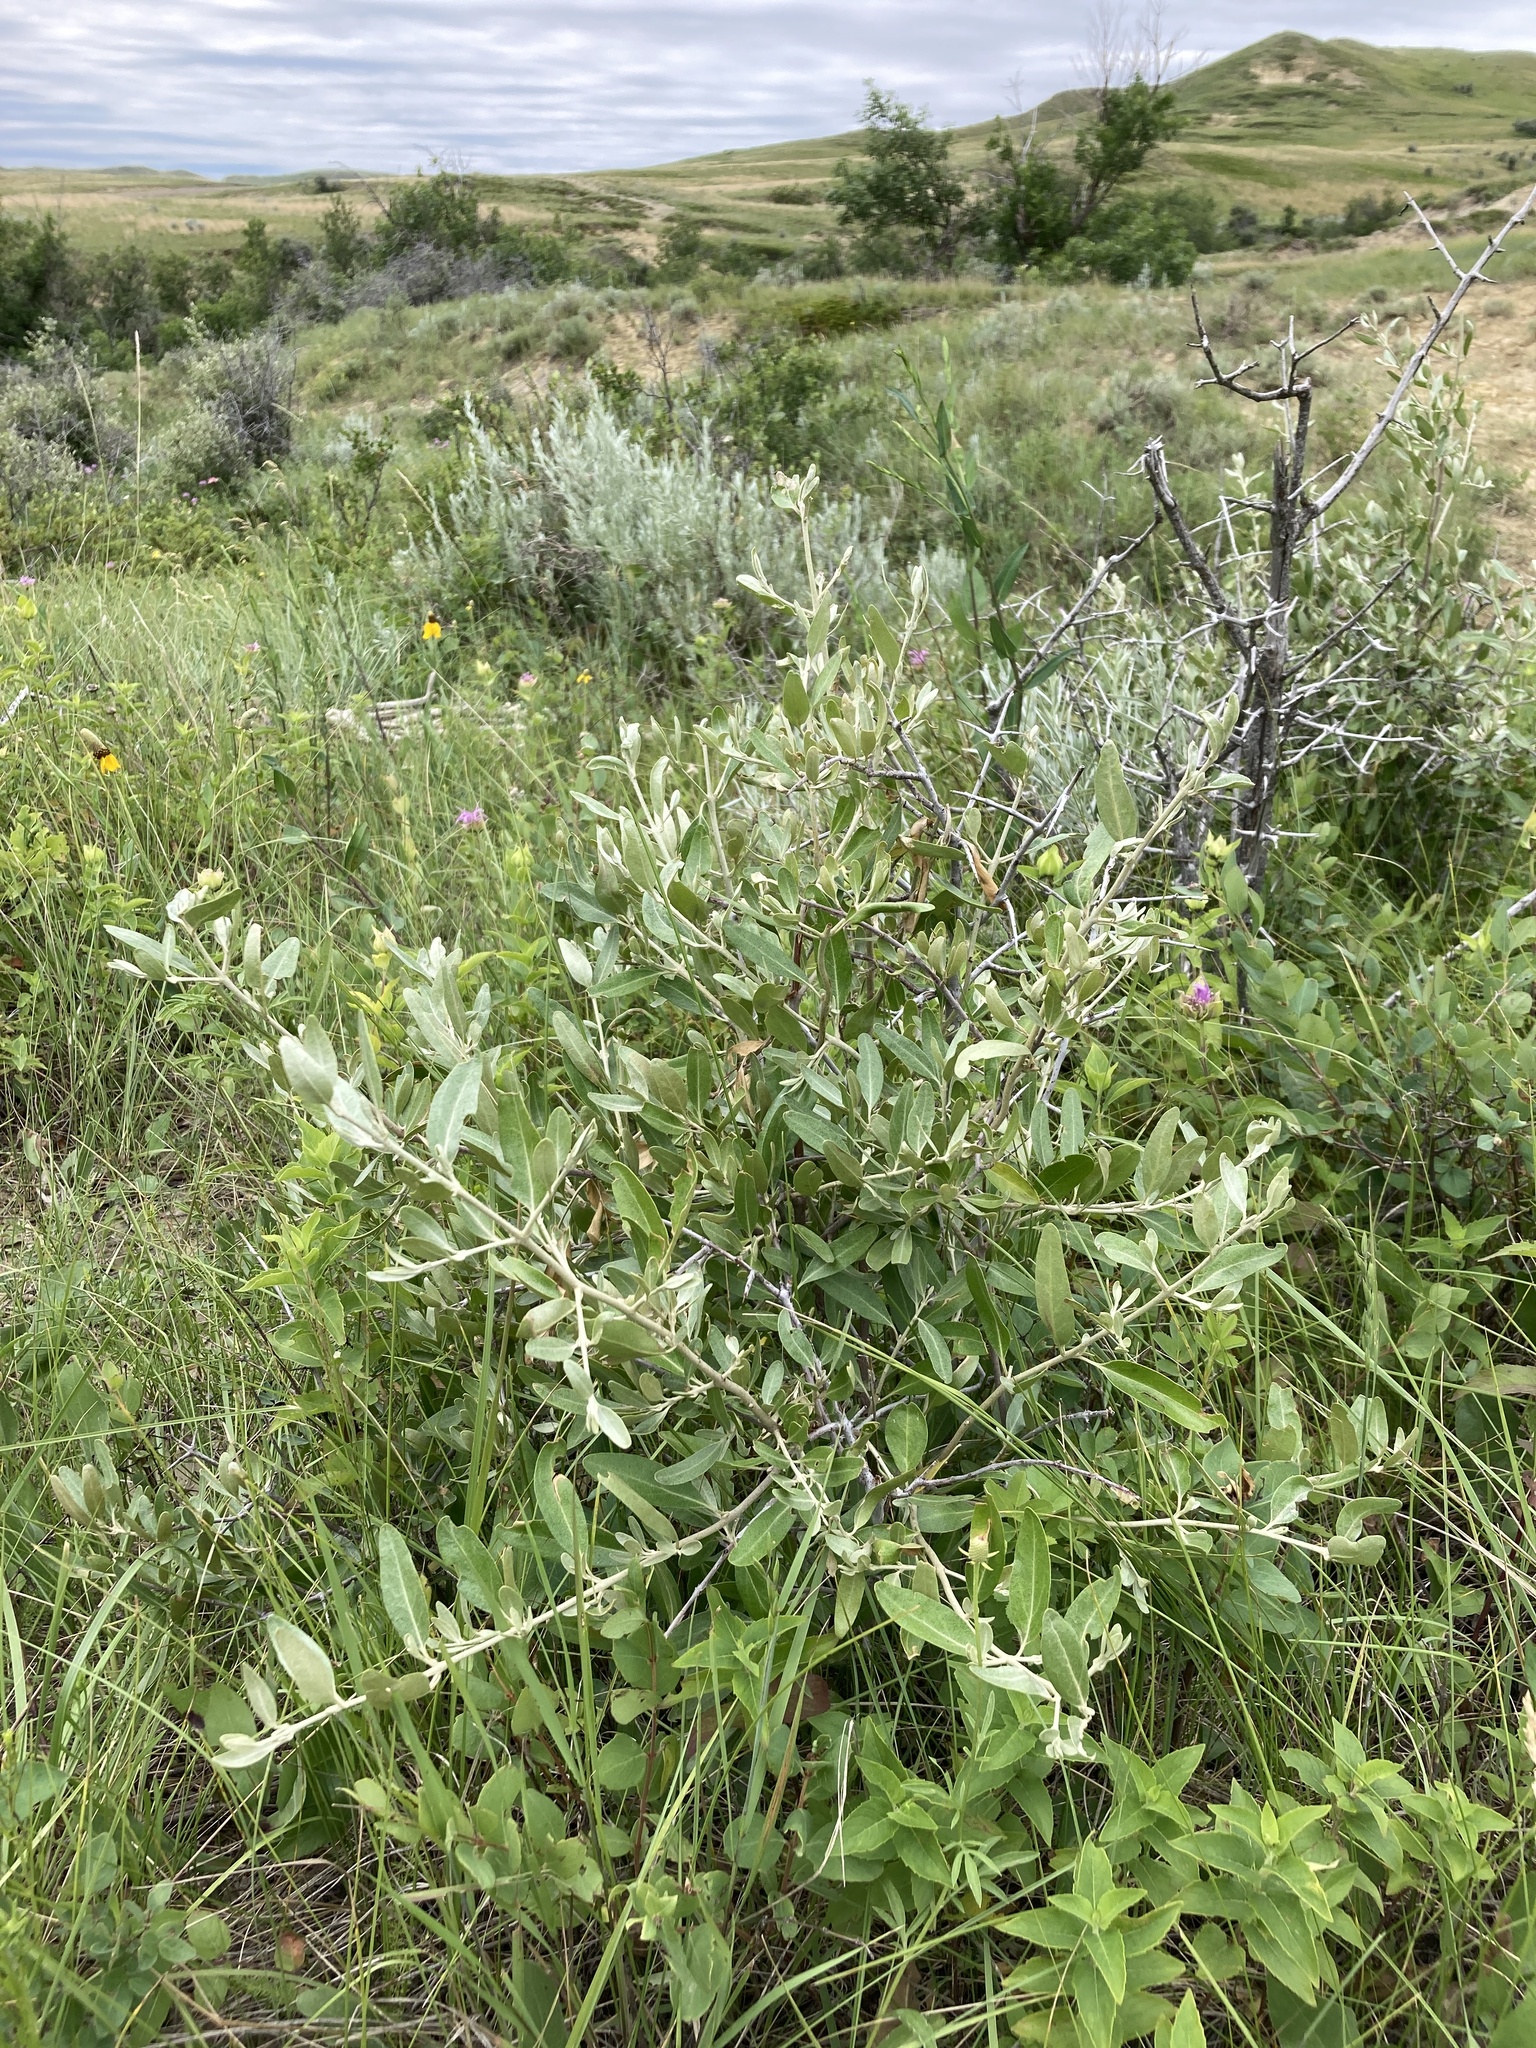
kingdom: Plantae
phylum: Tracheophyta
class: Magnoliopsida
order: Rosales
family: Elaeagnaceae
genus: Shepherdia
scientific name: Shepherdia argentea
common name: Silver buffaloberry
